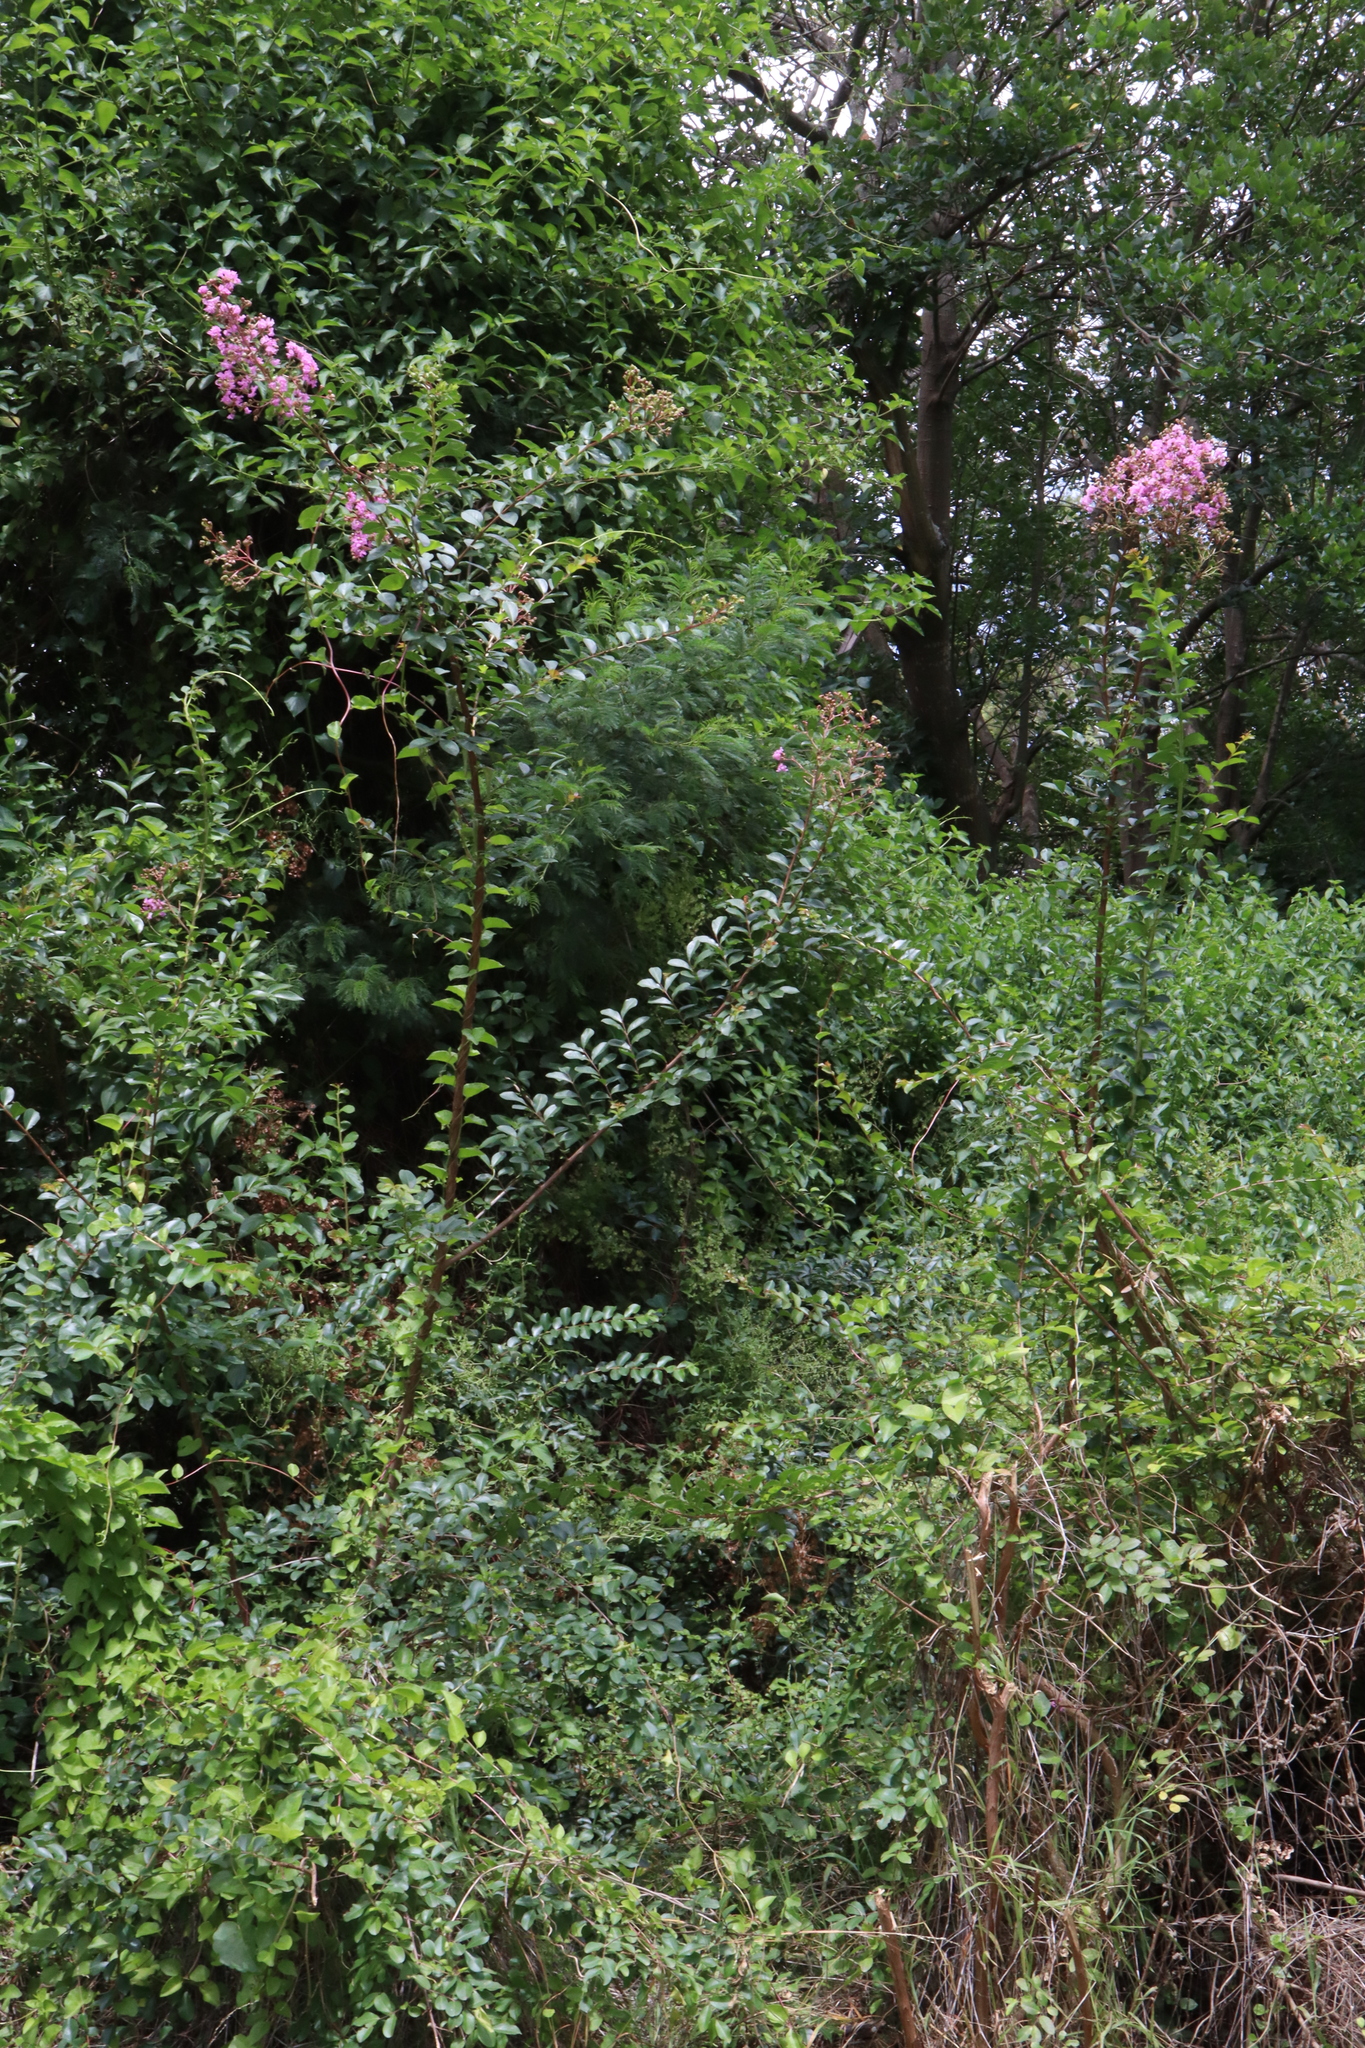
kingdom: Plantae
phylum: Tracheophyta
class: Magnoliopsida
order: Myrtales
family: Lythraceae
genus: Lagerstroemia
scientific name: Lagerstroemia indica
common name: Crape-myrtle
